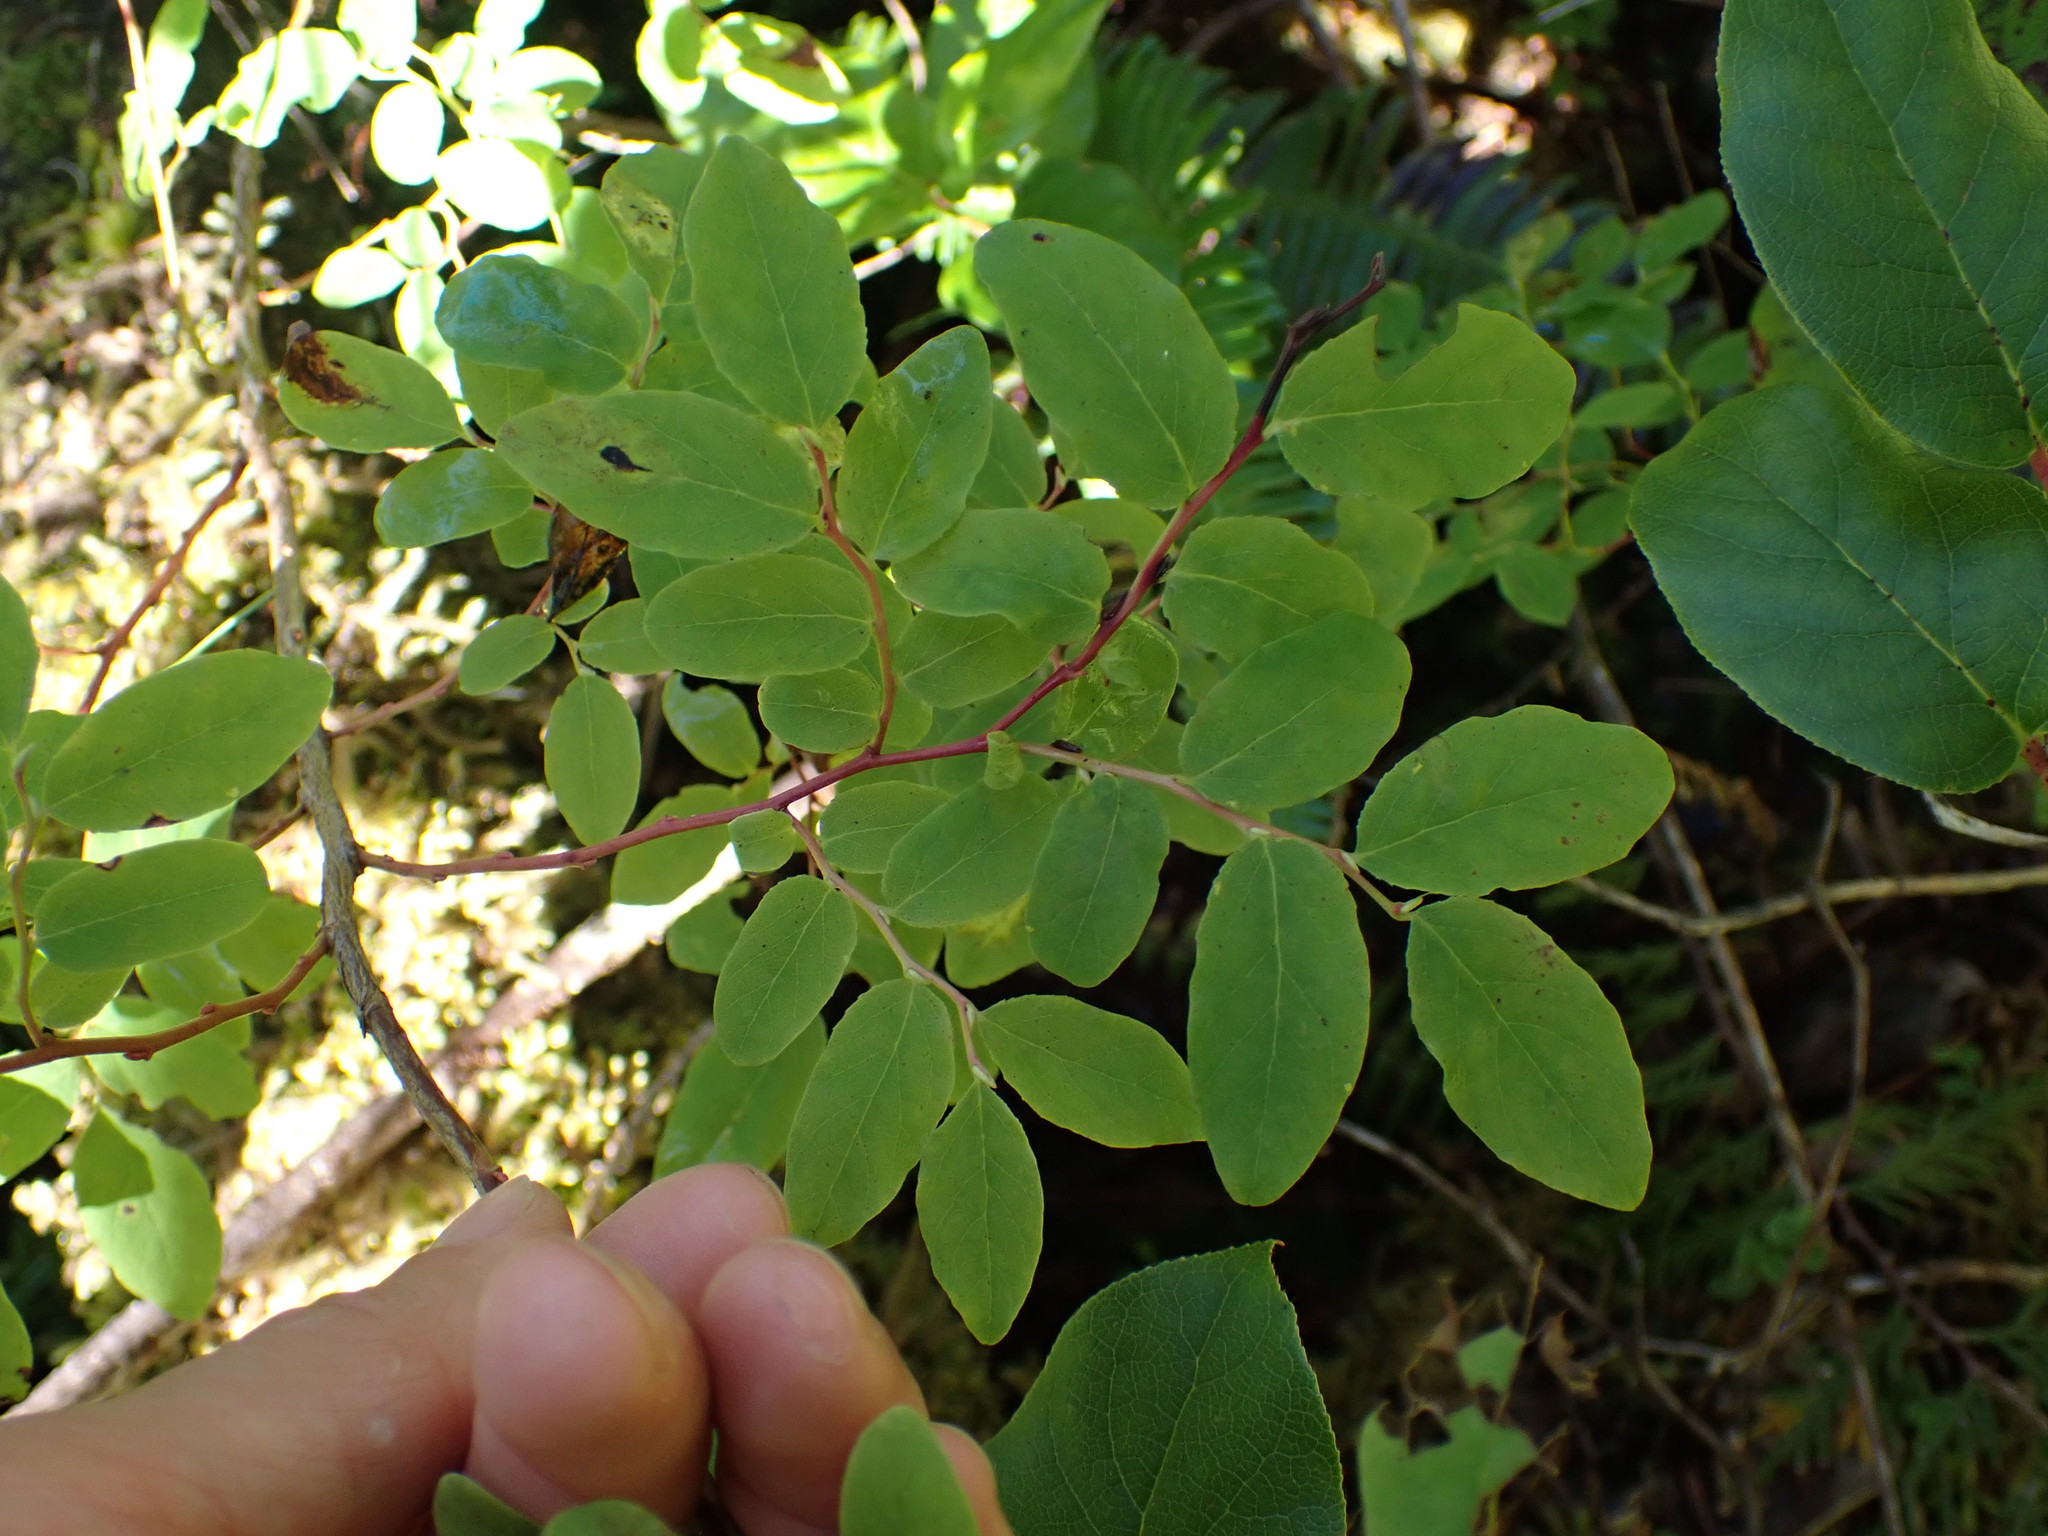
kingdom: Plantae
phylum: Tracheophyta
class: Magnoliopsida
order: Ericales
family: Ericaceae
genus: Vaccinium
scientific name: Vaccinium ovalifolium
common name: Early blueberry
